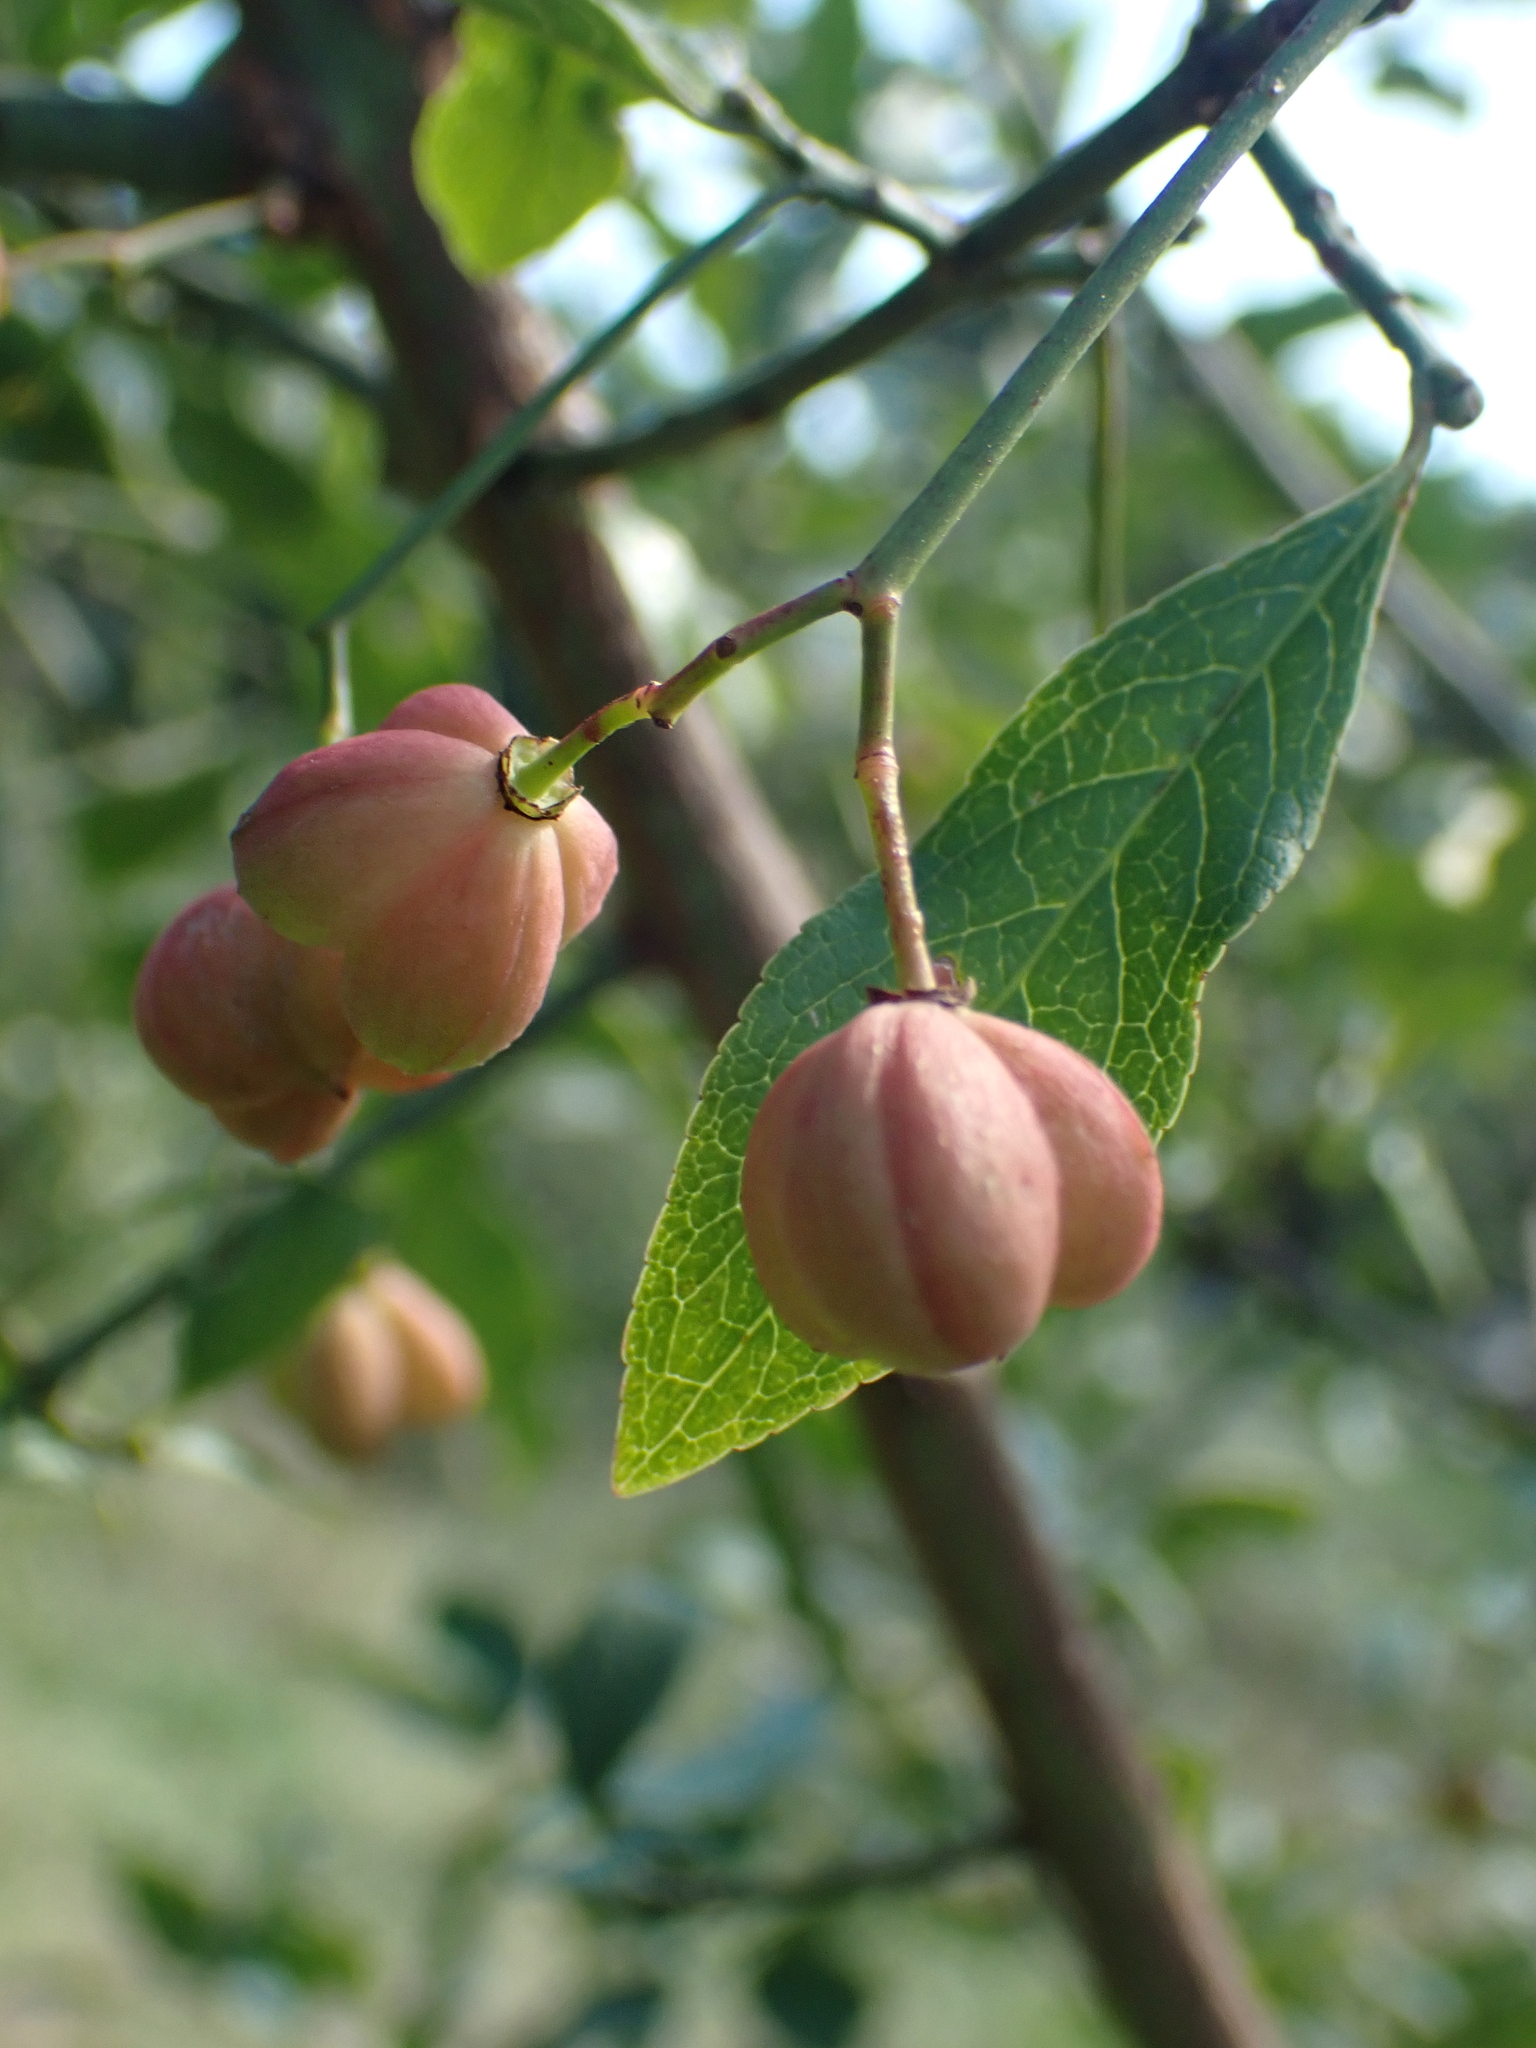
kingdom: Plantae
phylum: Tracheophyta
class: Magnoliopsida
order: Celastrales
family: Celastraceae
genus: Euonymus
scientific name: Euonymus europaeus
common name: Spindle
